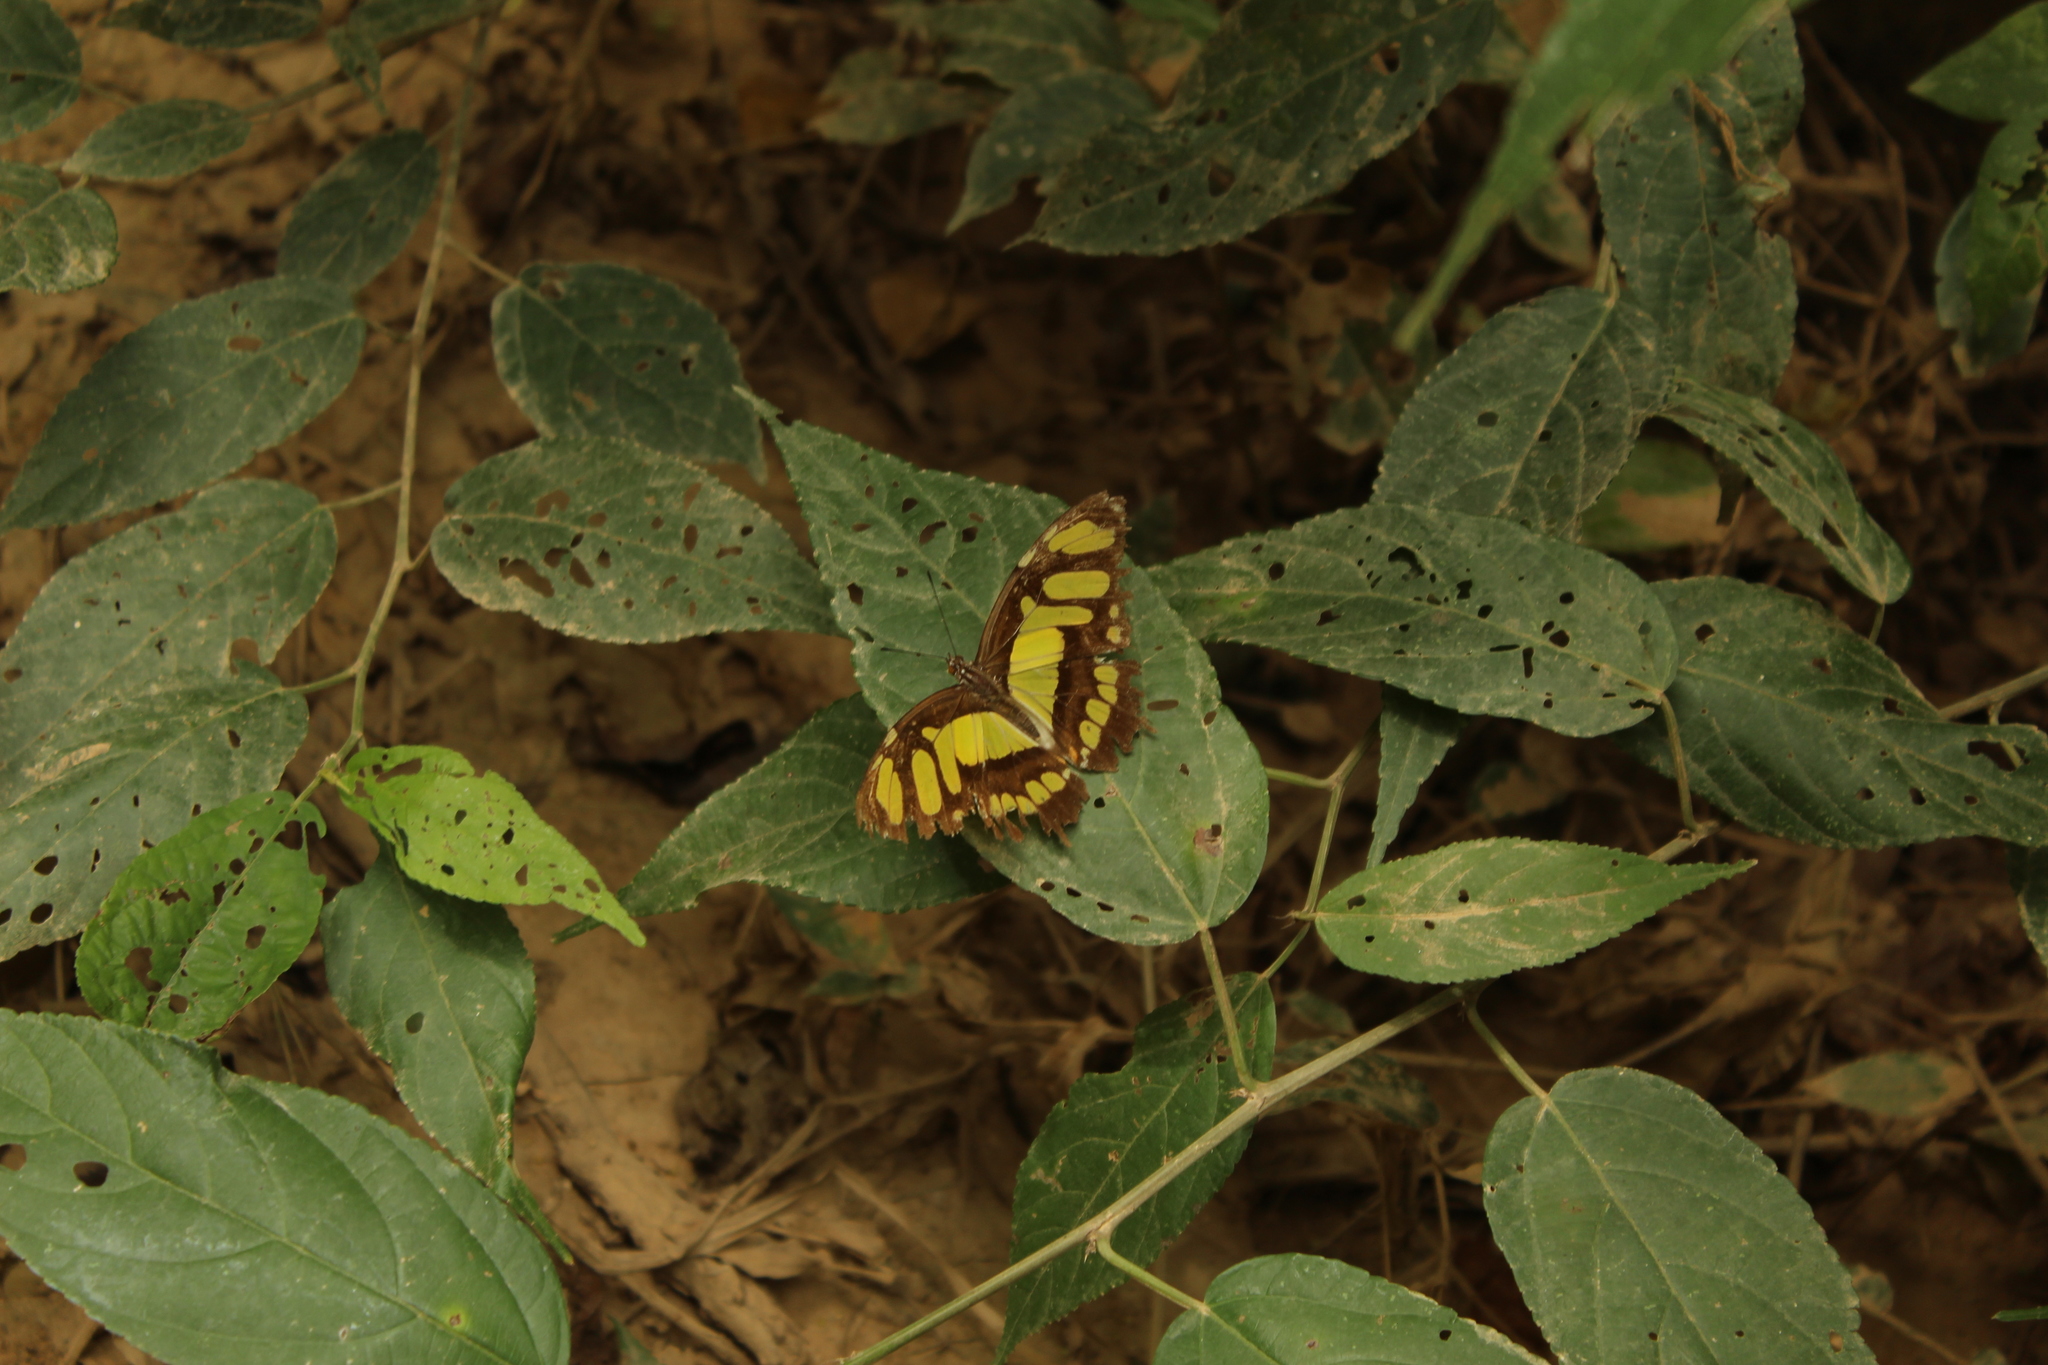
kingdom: Animalia
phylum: Arthropoda
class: Insecta
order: Lepidoptera
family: Nymphalidae
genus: Siproeta
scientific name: Siproeta stelenes
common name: Malachite
